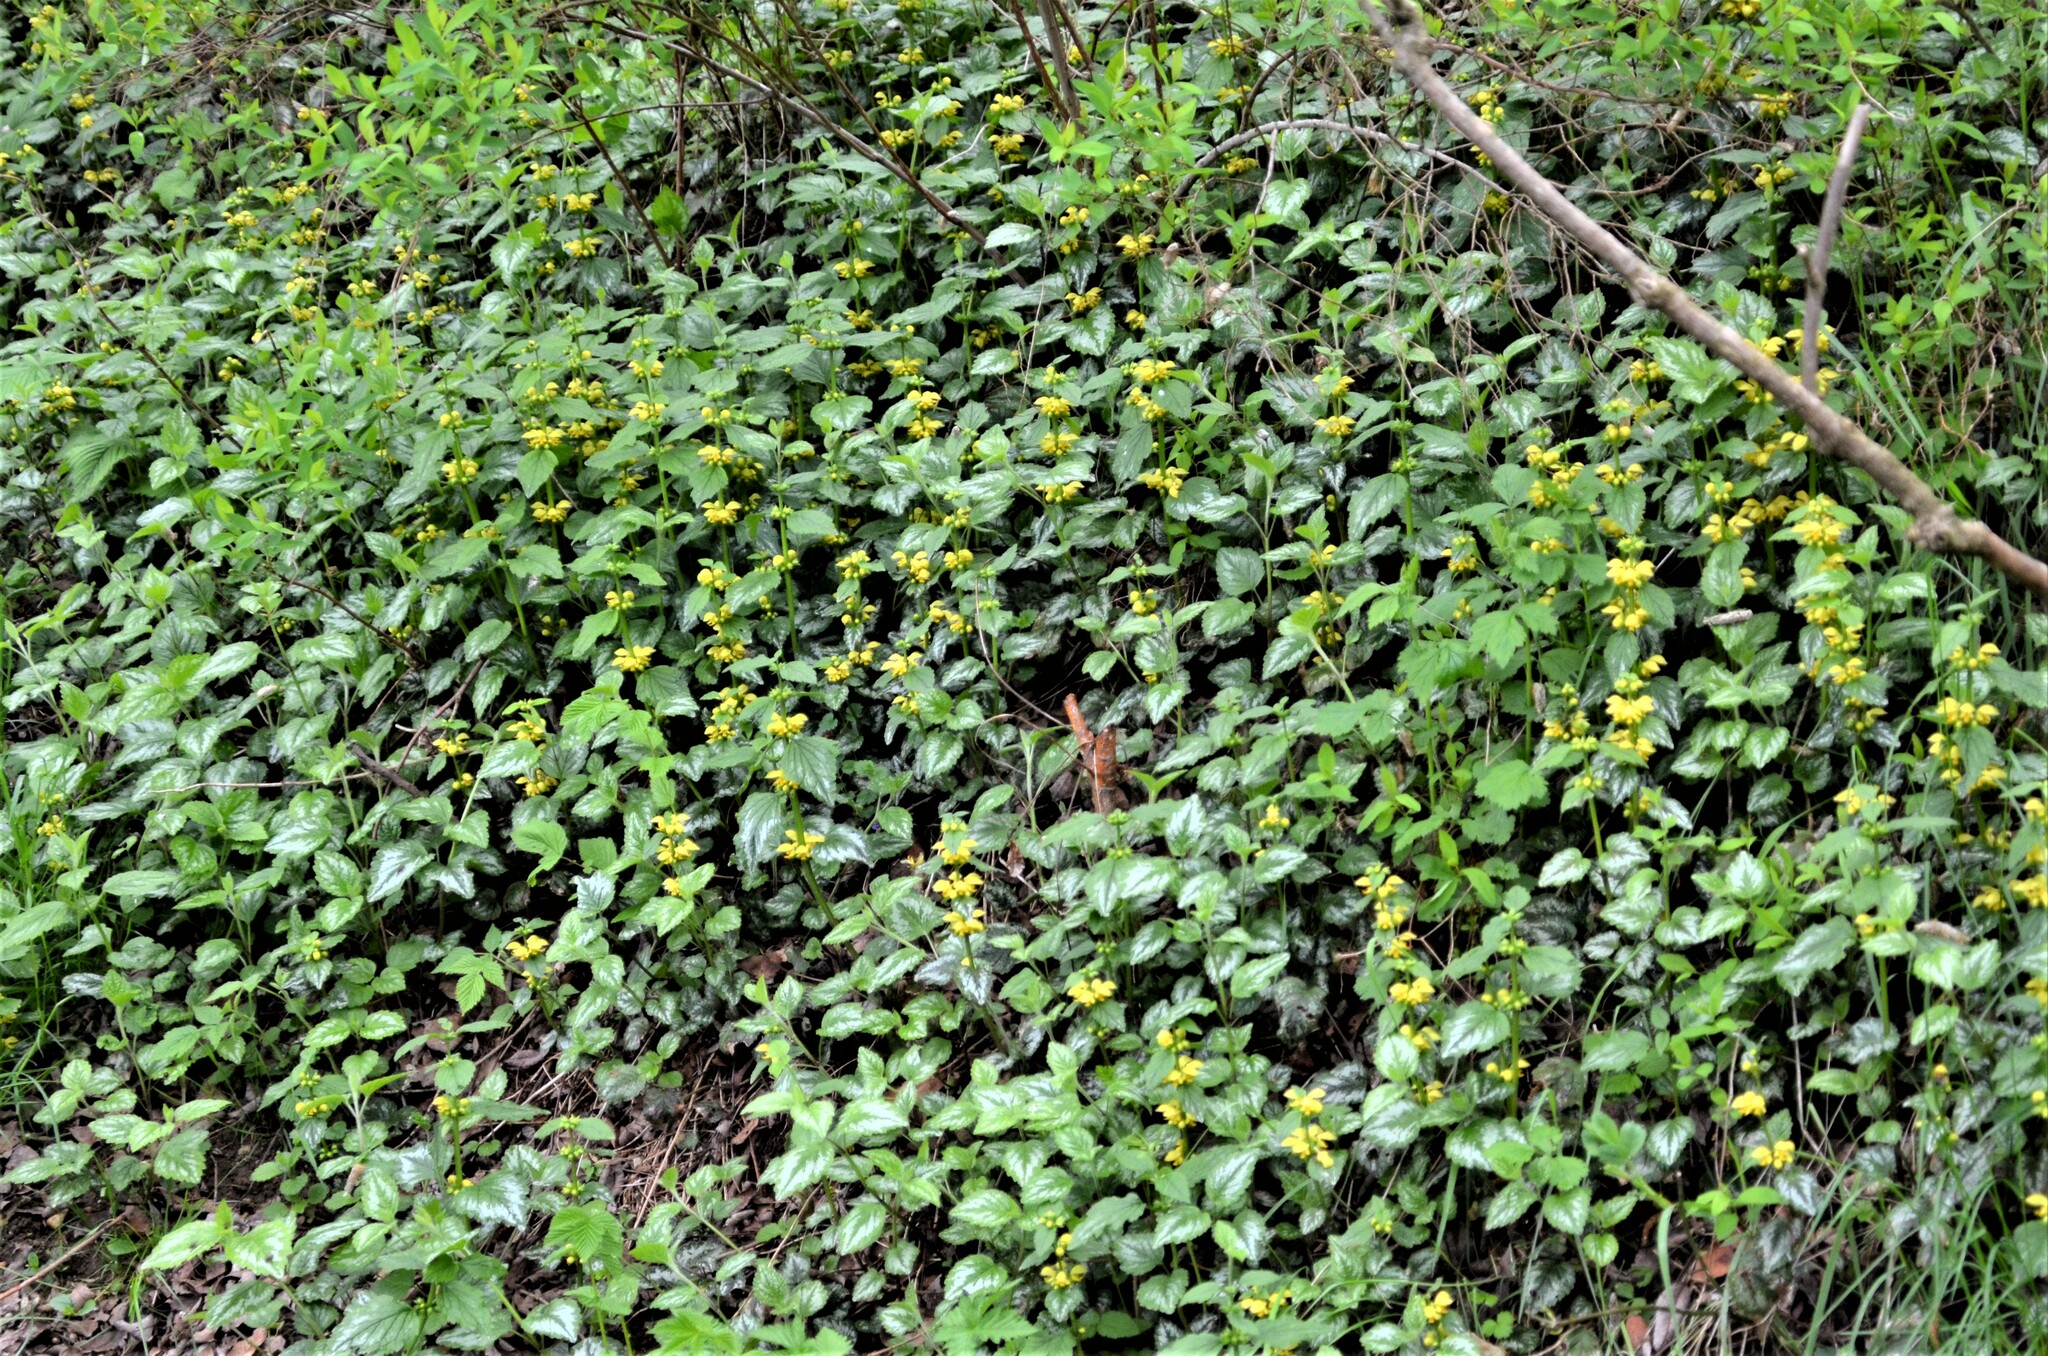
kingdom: Plantae
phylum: Tracheophyta
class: Magnoliopsida
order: Lamiales
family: Lamiaceae
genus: Lamium
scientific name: Lamium galeobdolon
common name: Yellow archangel
